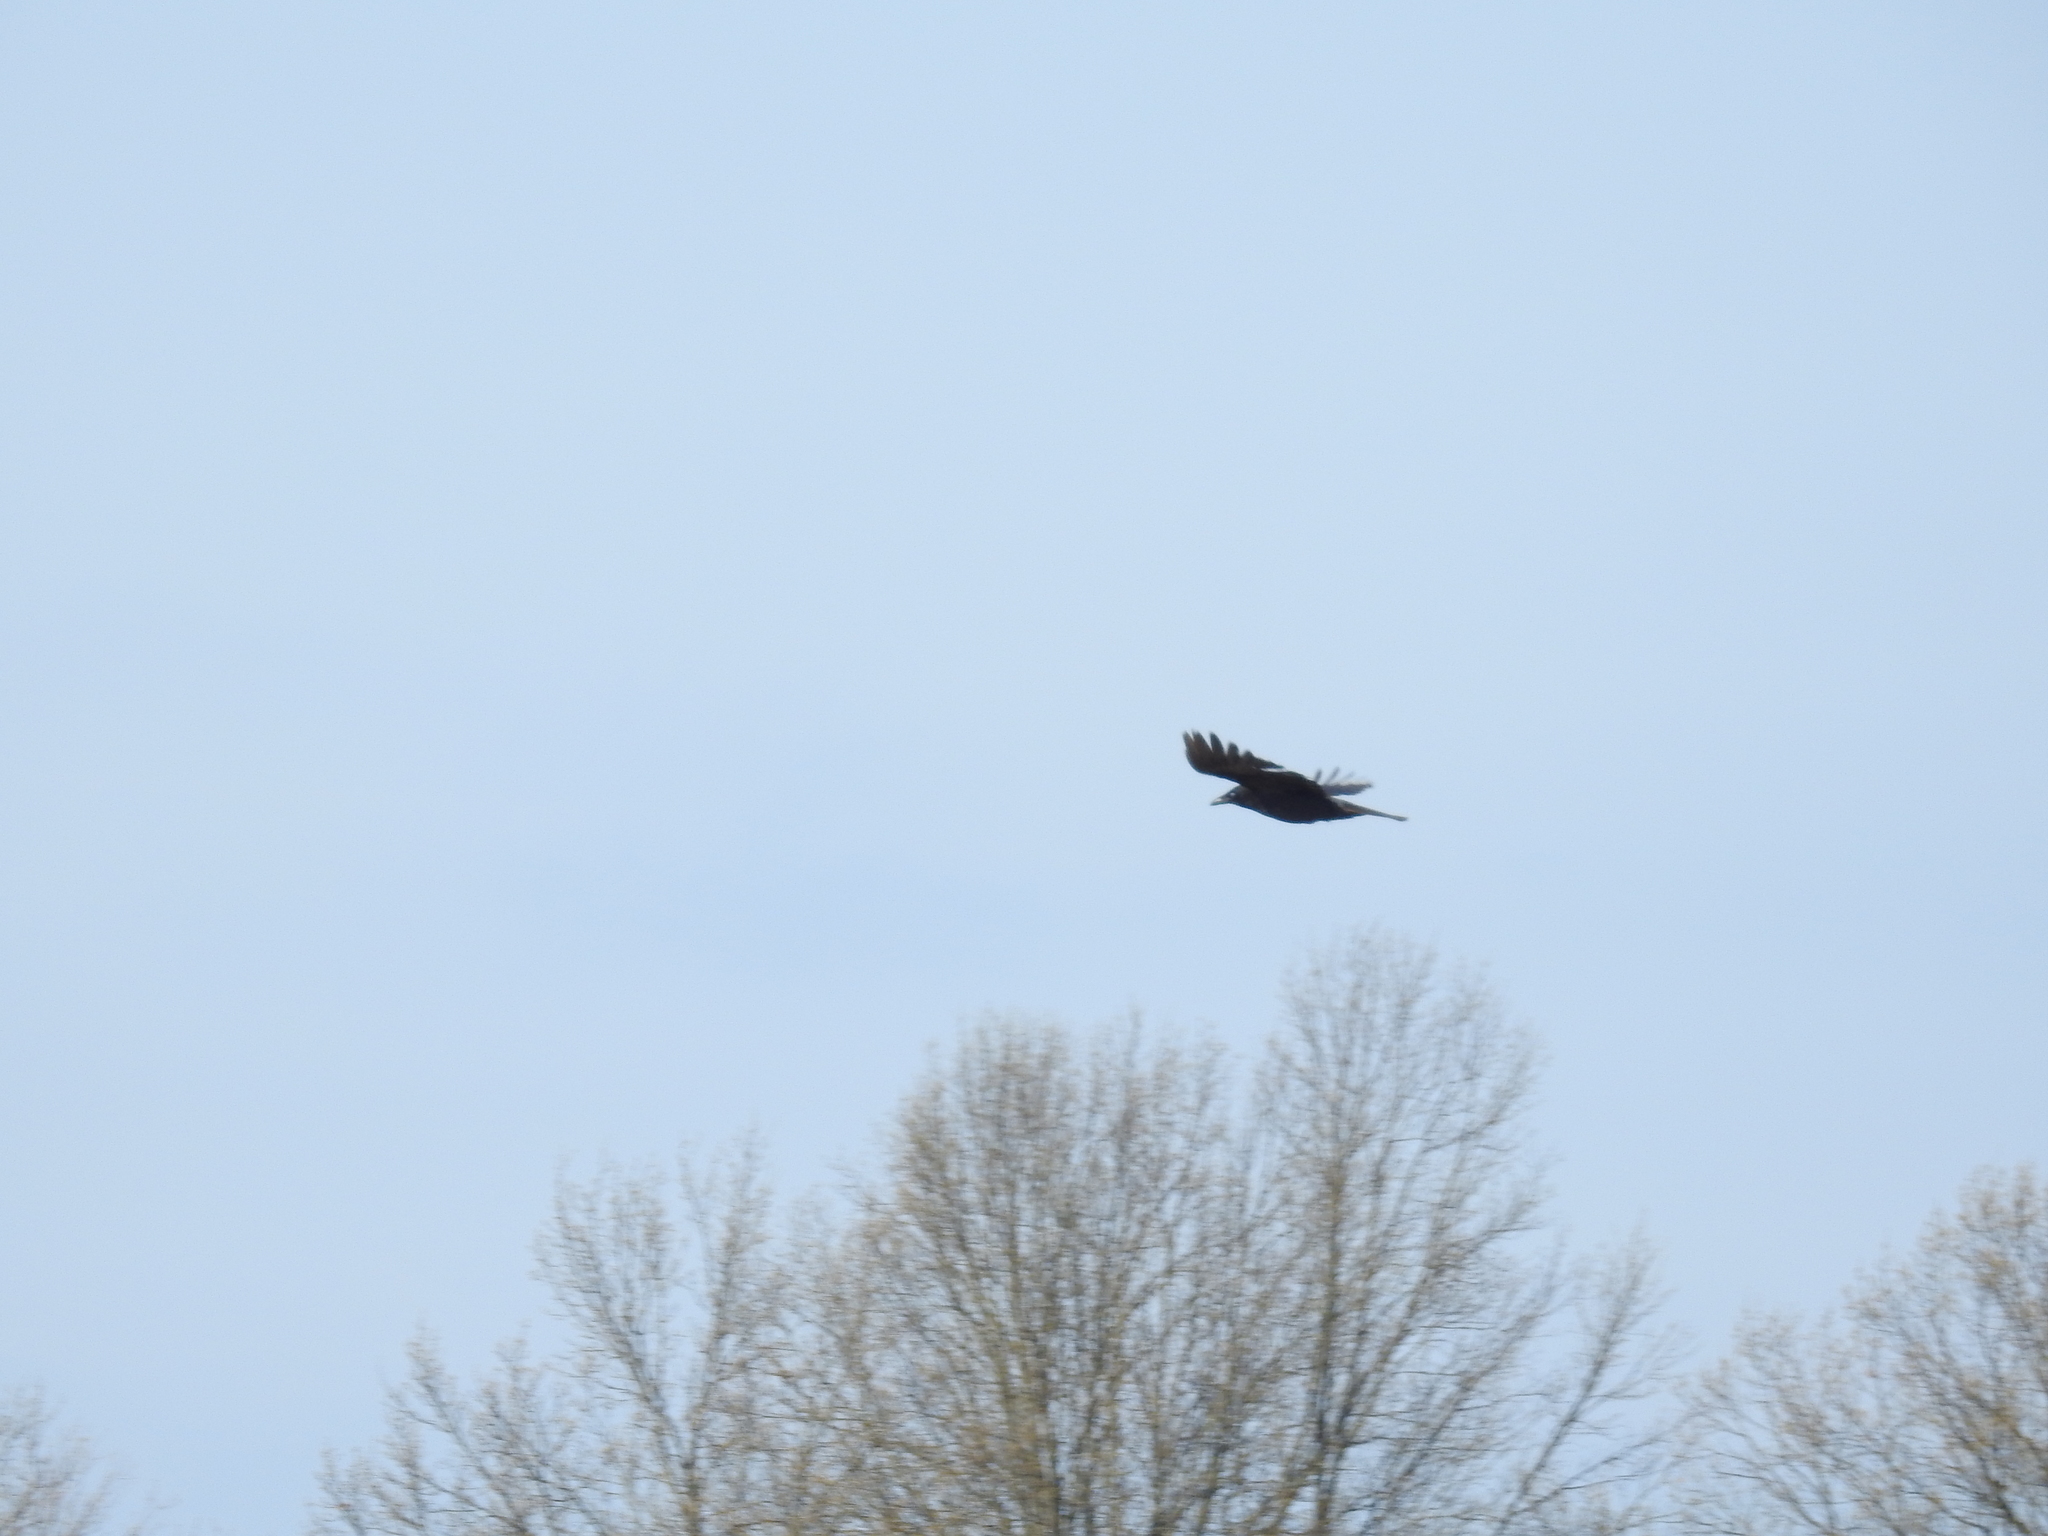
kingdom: Animalia
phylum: Chordata
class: Aves
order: Passeriformes
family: Corvidae
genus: Corvus
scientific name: Corvus brachyrhynchos
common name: American crow
